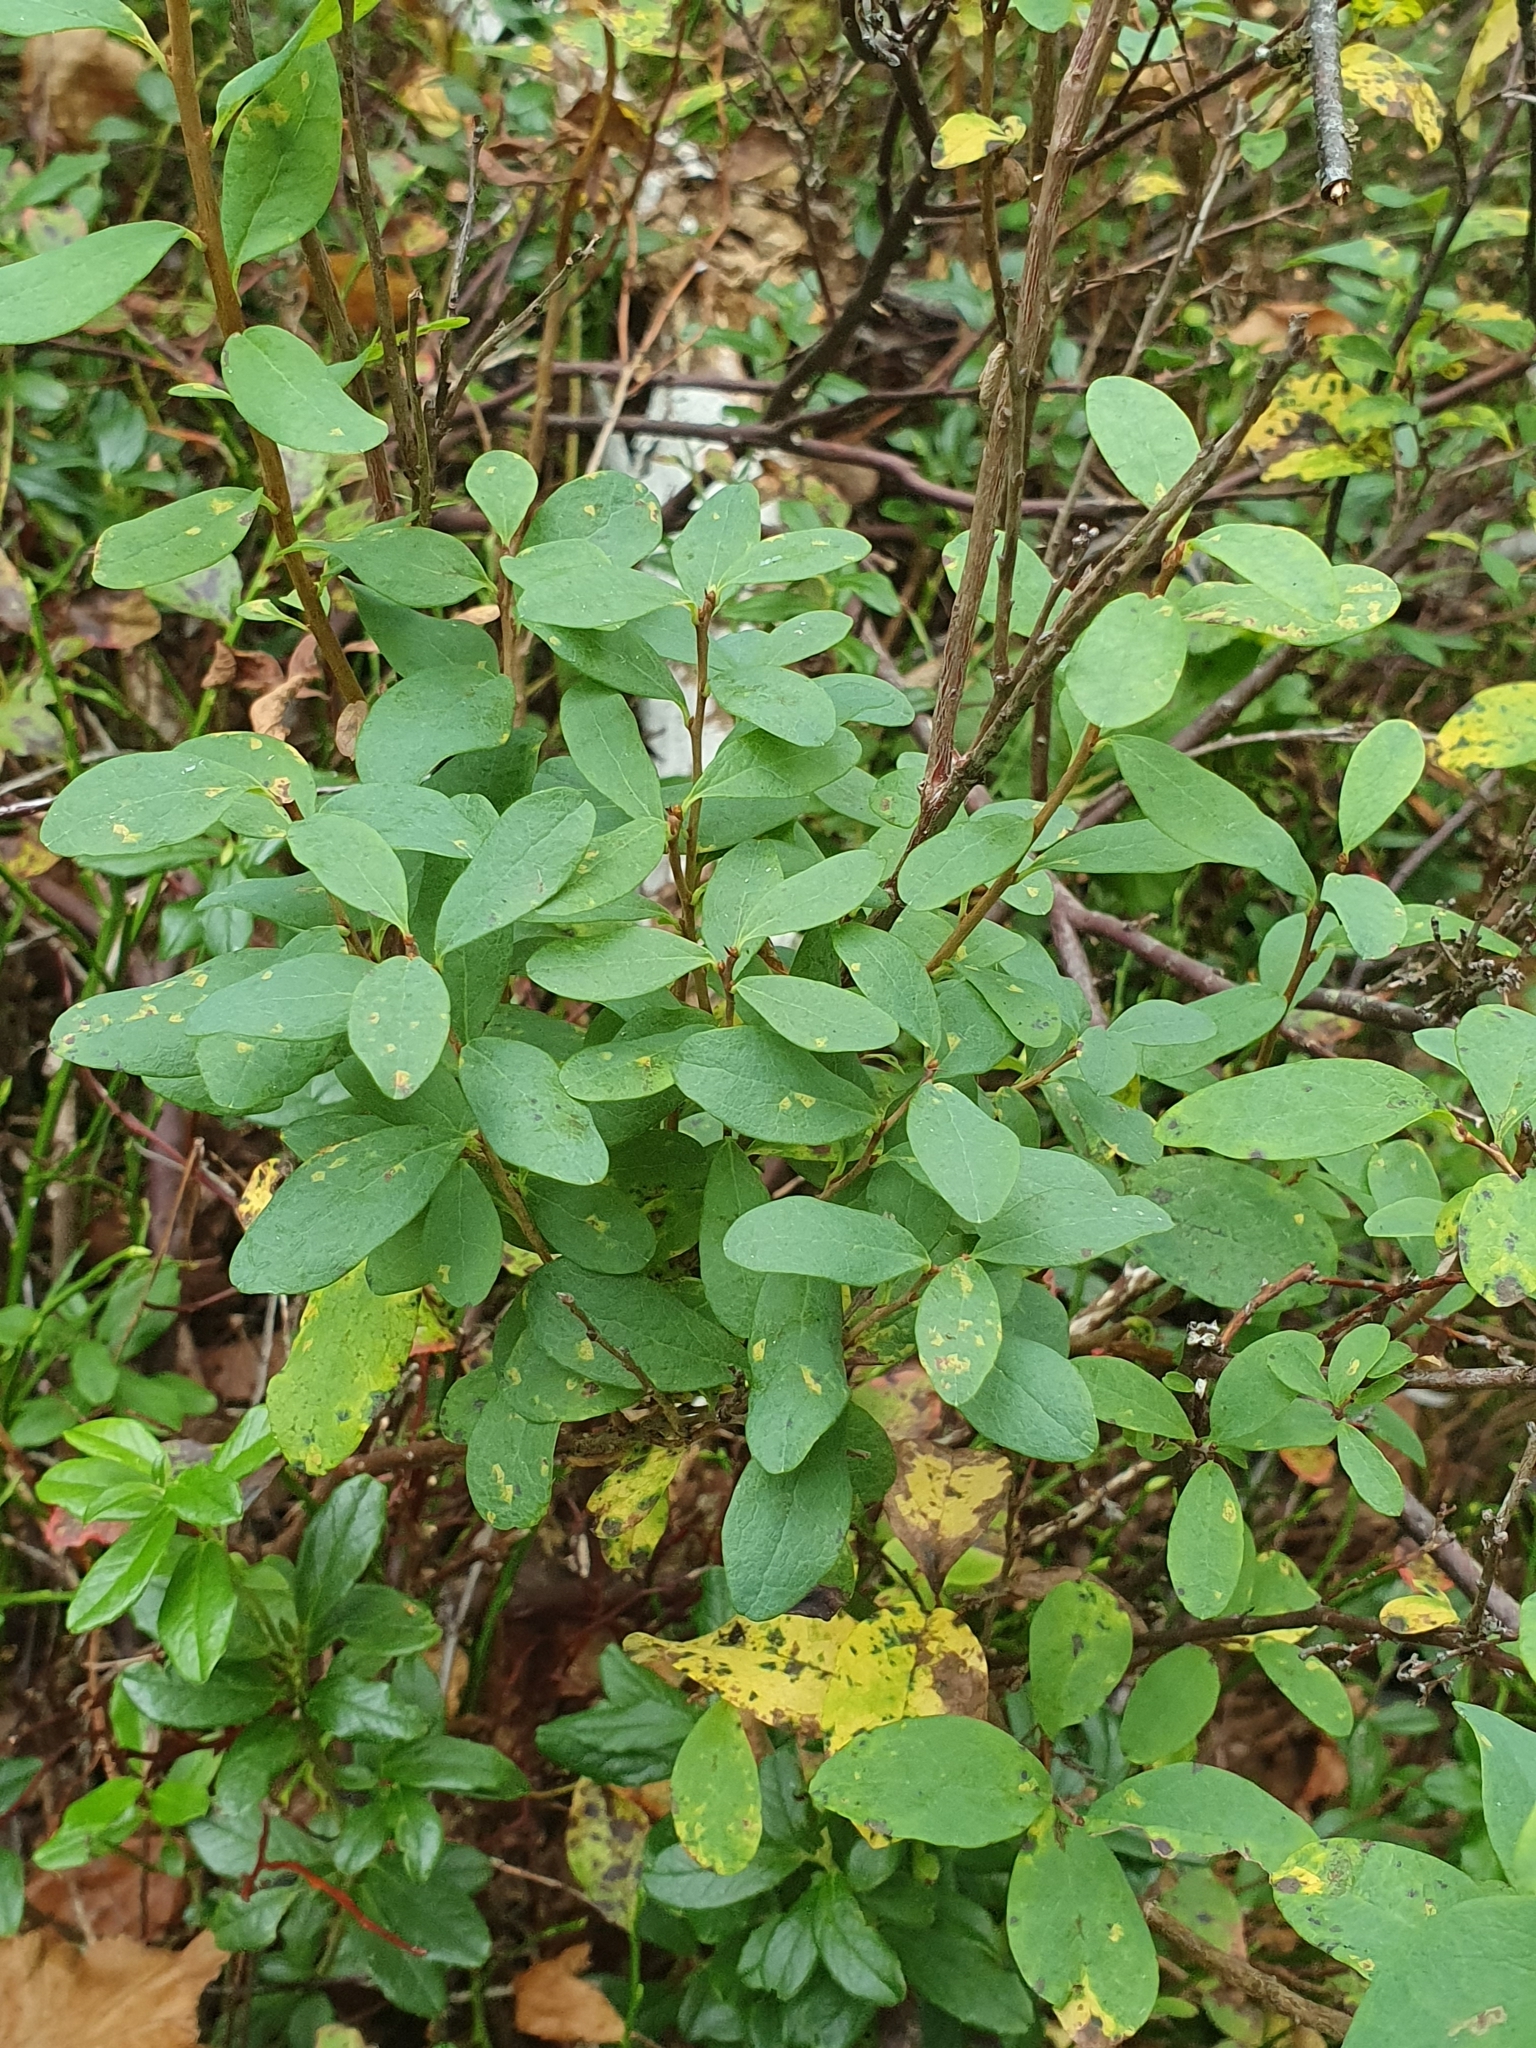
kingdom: Plantae
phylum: Tracheophyta
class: Magnoliopsida
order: Ericales
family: Ericaceae
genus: Vaccinium
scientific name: Vaccinium uliginosum
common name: Bog bilberry
